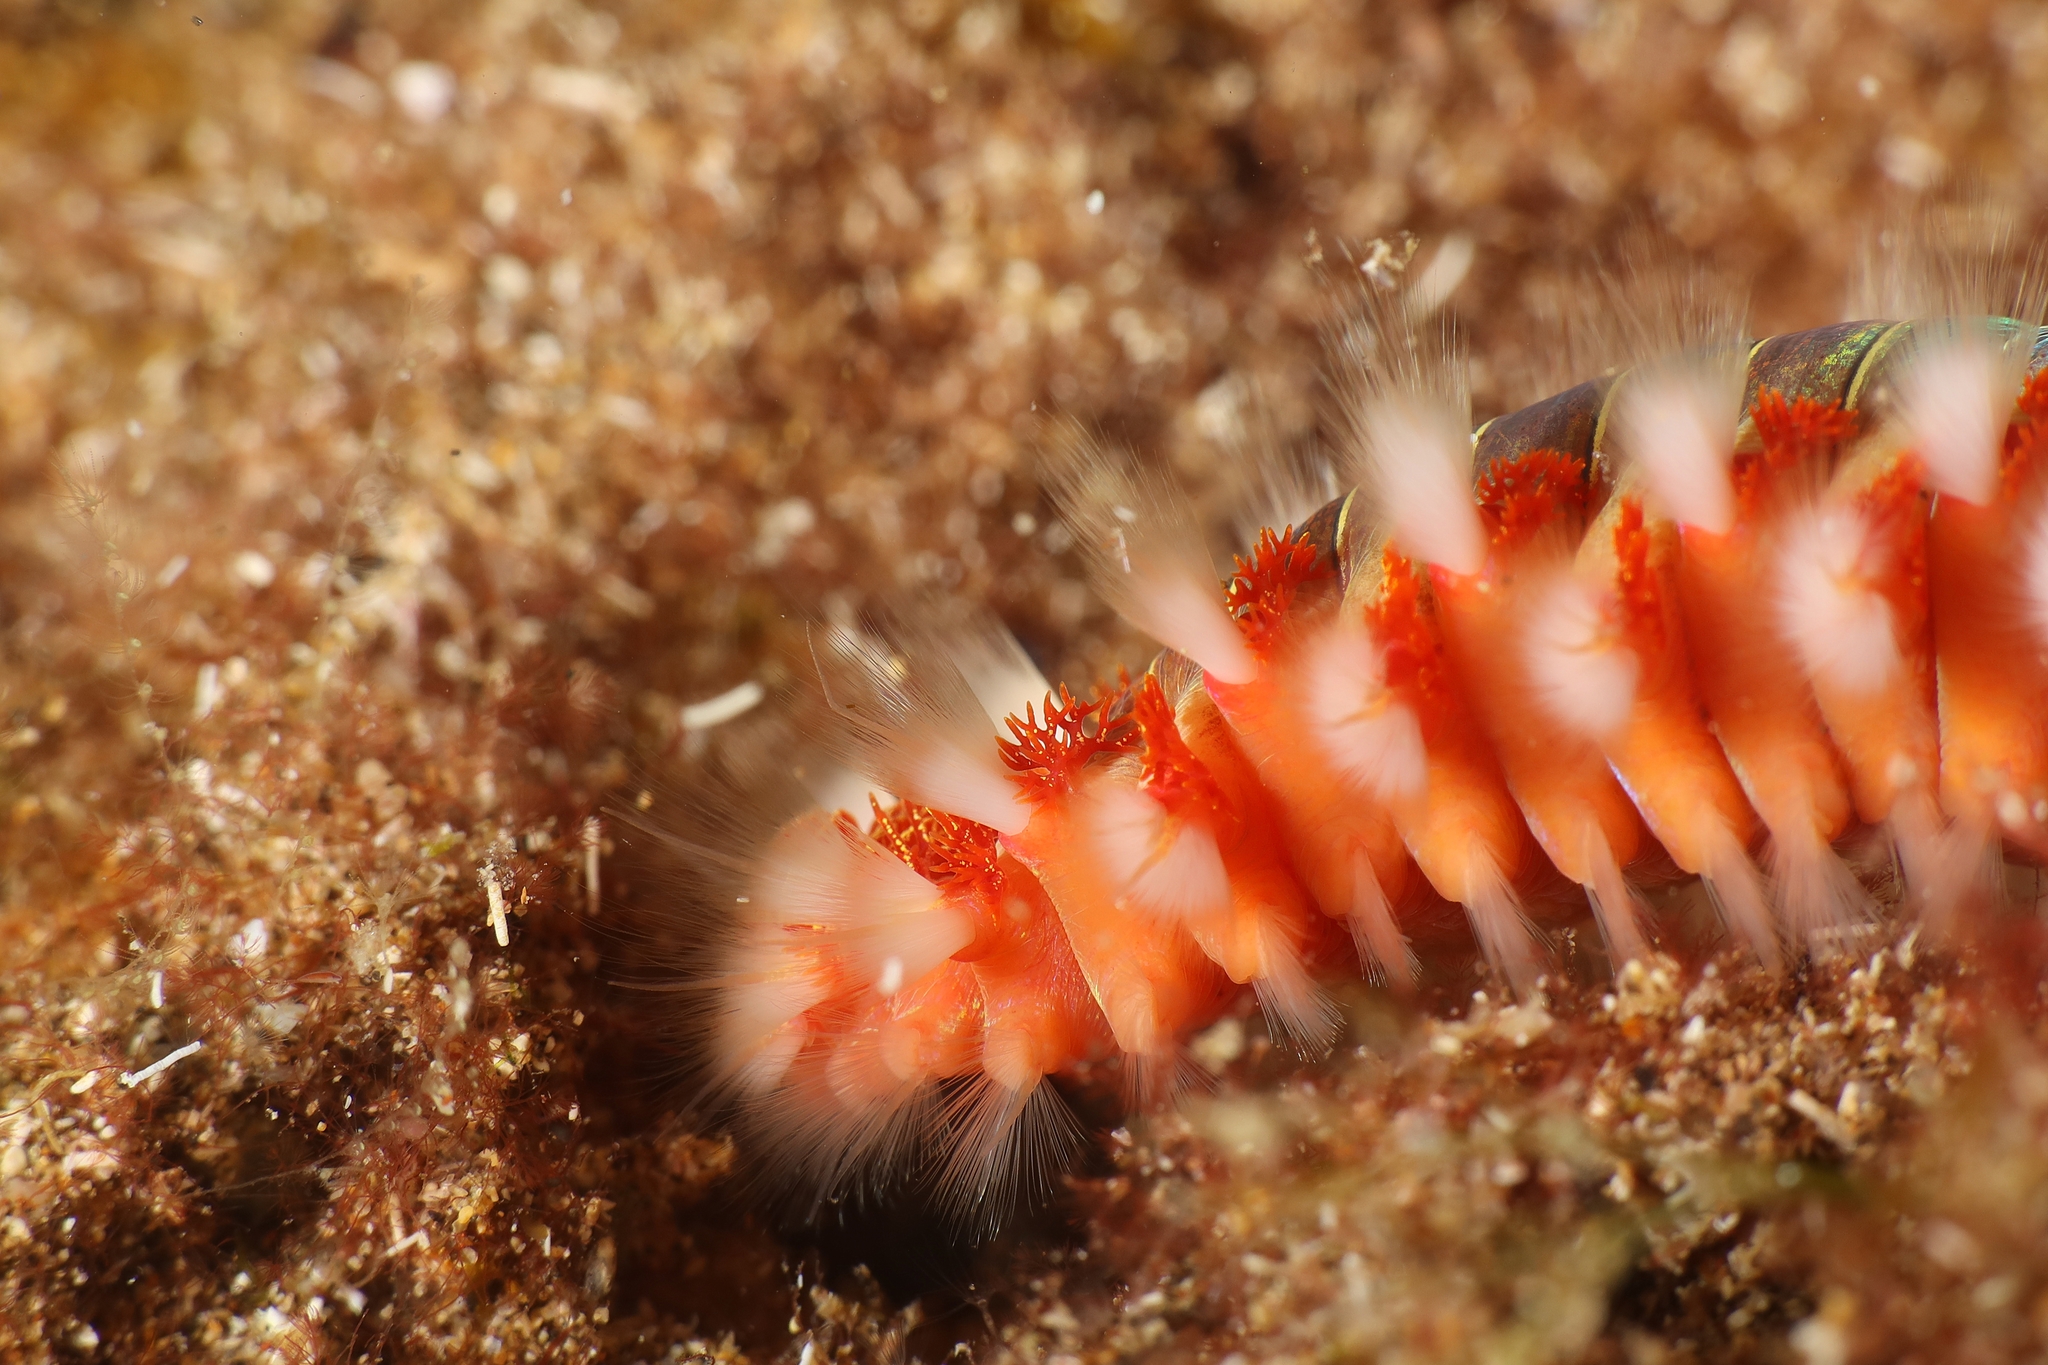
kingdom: Animalia
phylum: Annelida
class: Polychaeta
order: Amphinomida
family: Amphinomidae
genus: Hermodice
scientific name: Hermodice carunculata
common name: Bearded fireworm
